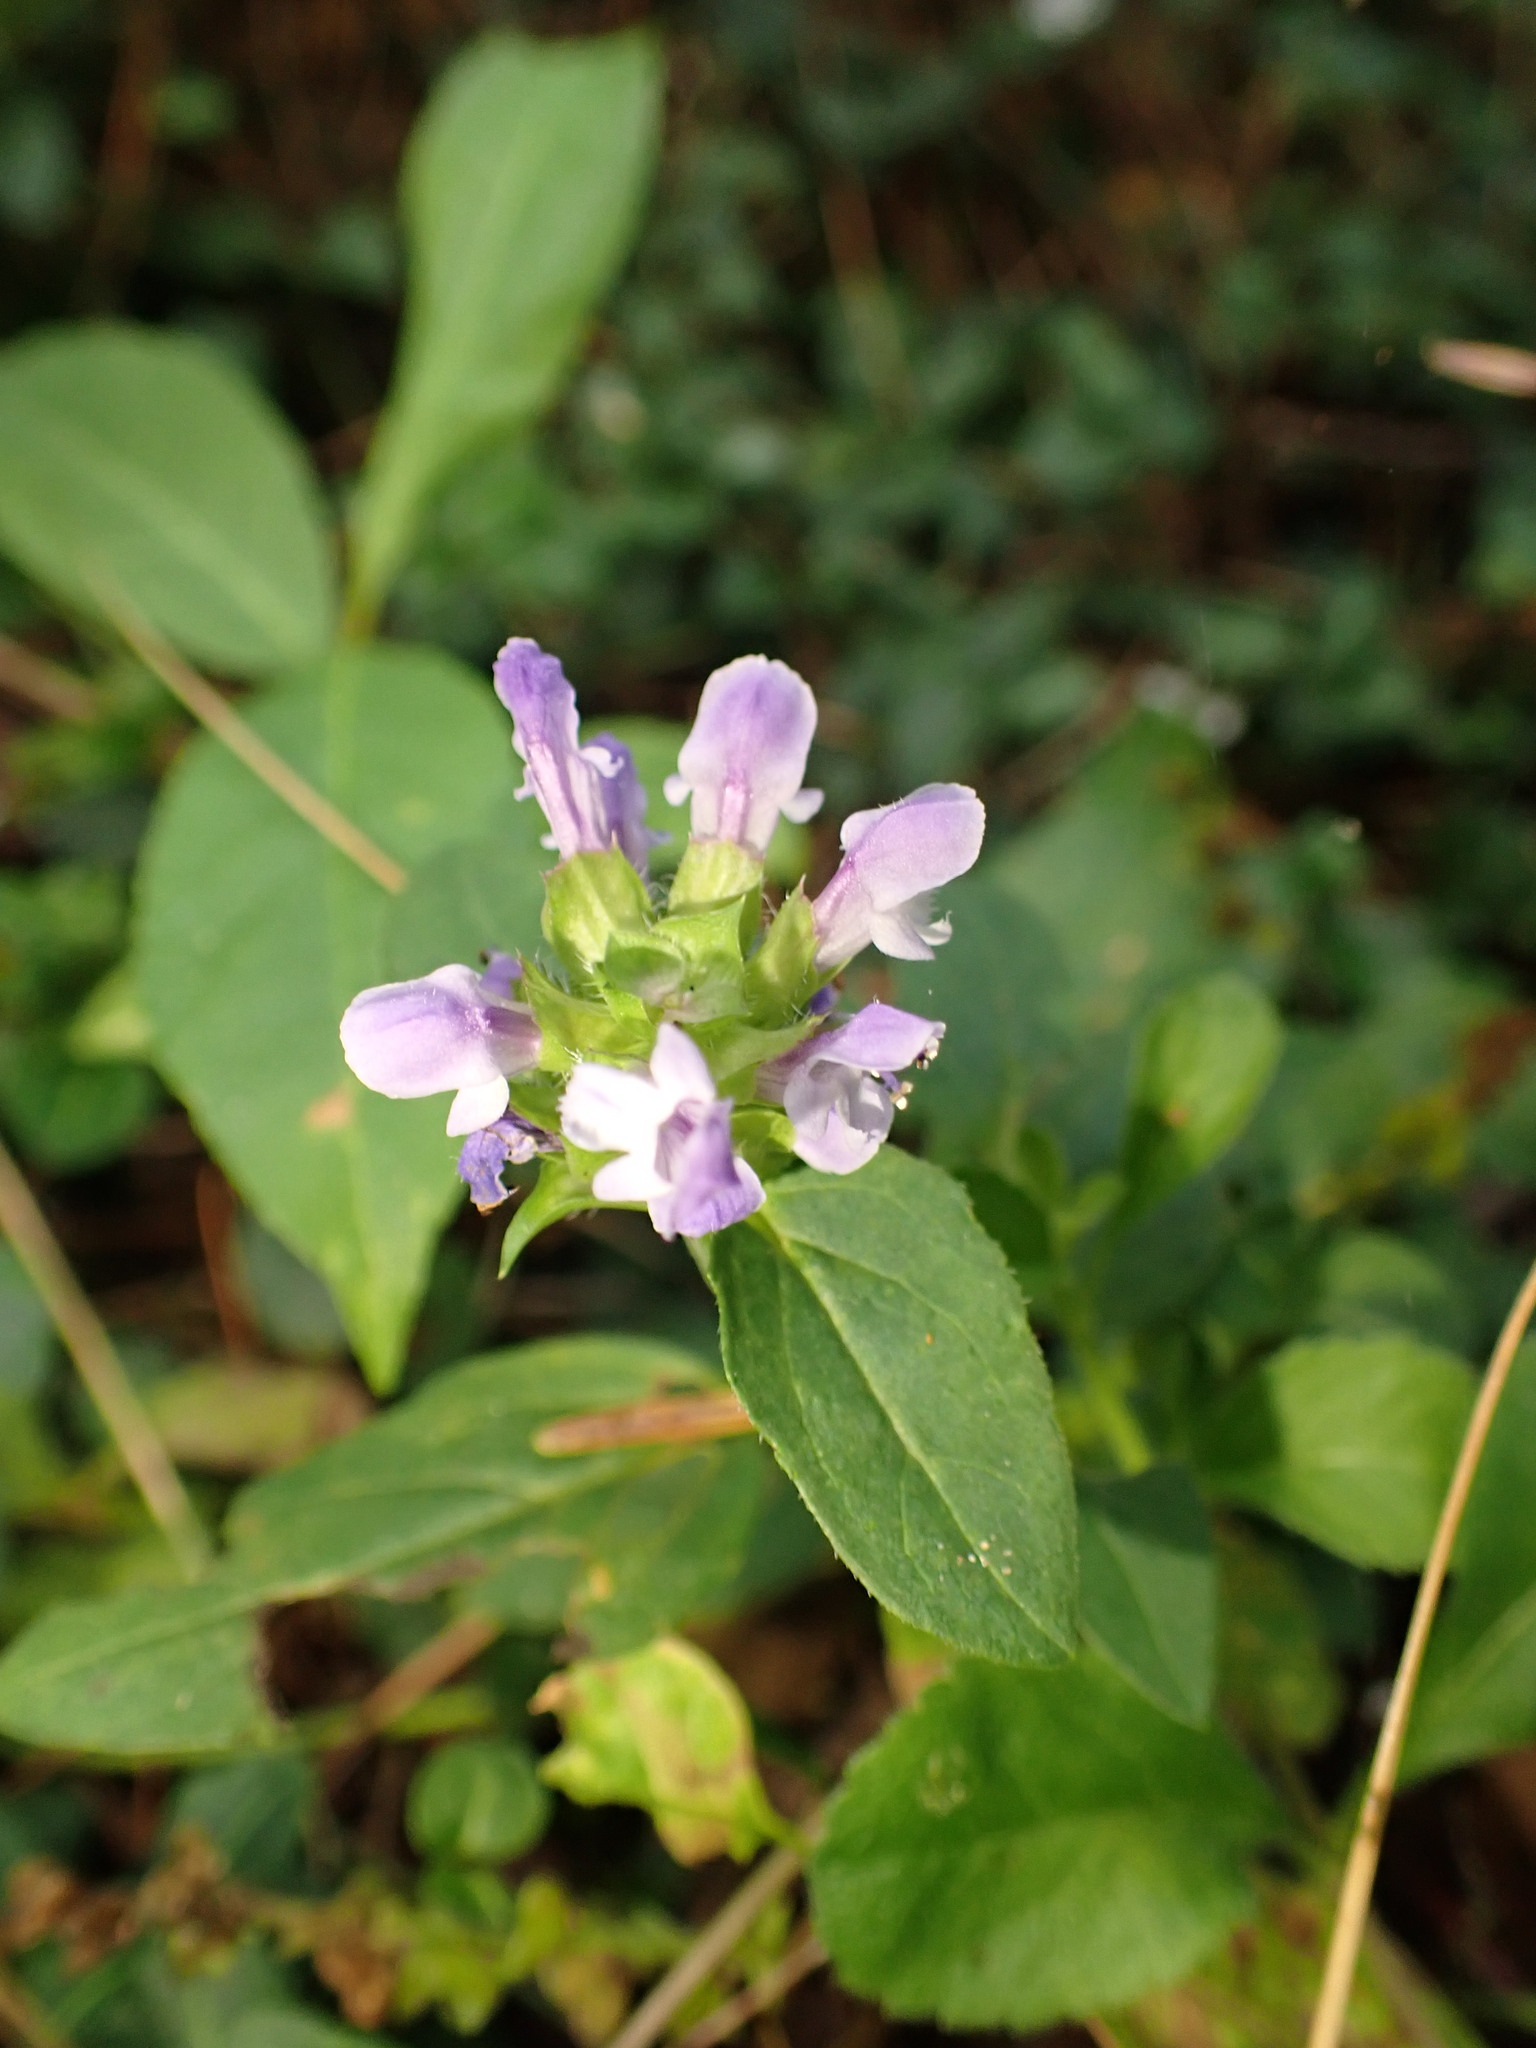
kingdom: Plantae
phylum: Tracheophyta
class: Magnoliopsida
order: Lamiales
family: Lamiaceae
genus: Prunella
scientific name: Prunella vulgaris
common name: Heal-all
